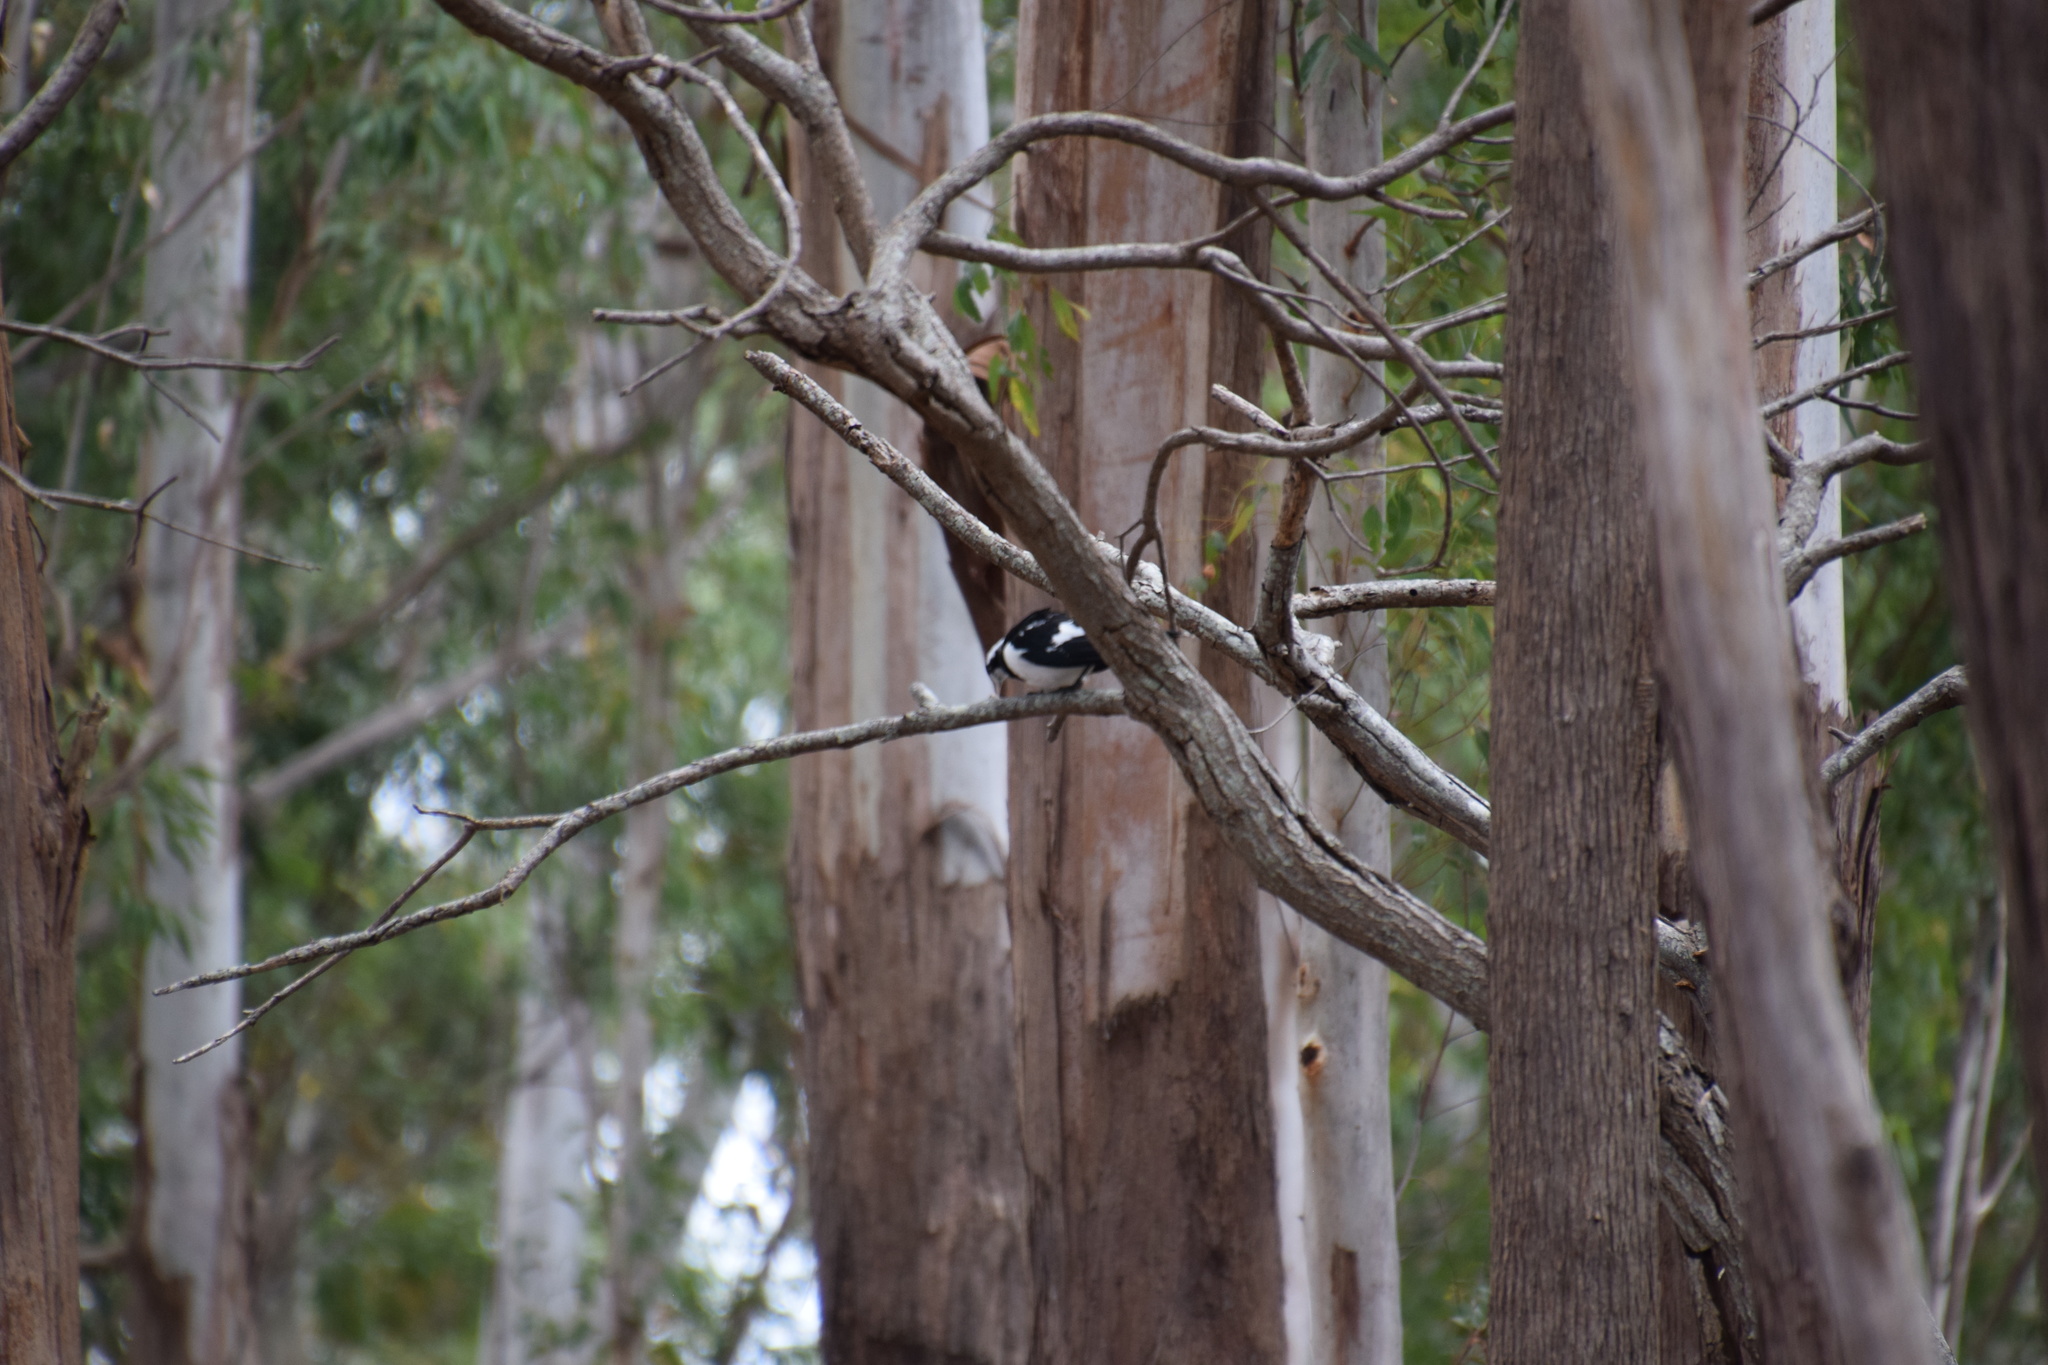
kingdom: Animalia
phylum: Chordata
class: Aves
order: Passeriformes
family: Monarchidae
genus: Grallina
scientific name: Grallina cyanoleuca
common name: Magpie-lark
